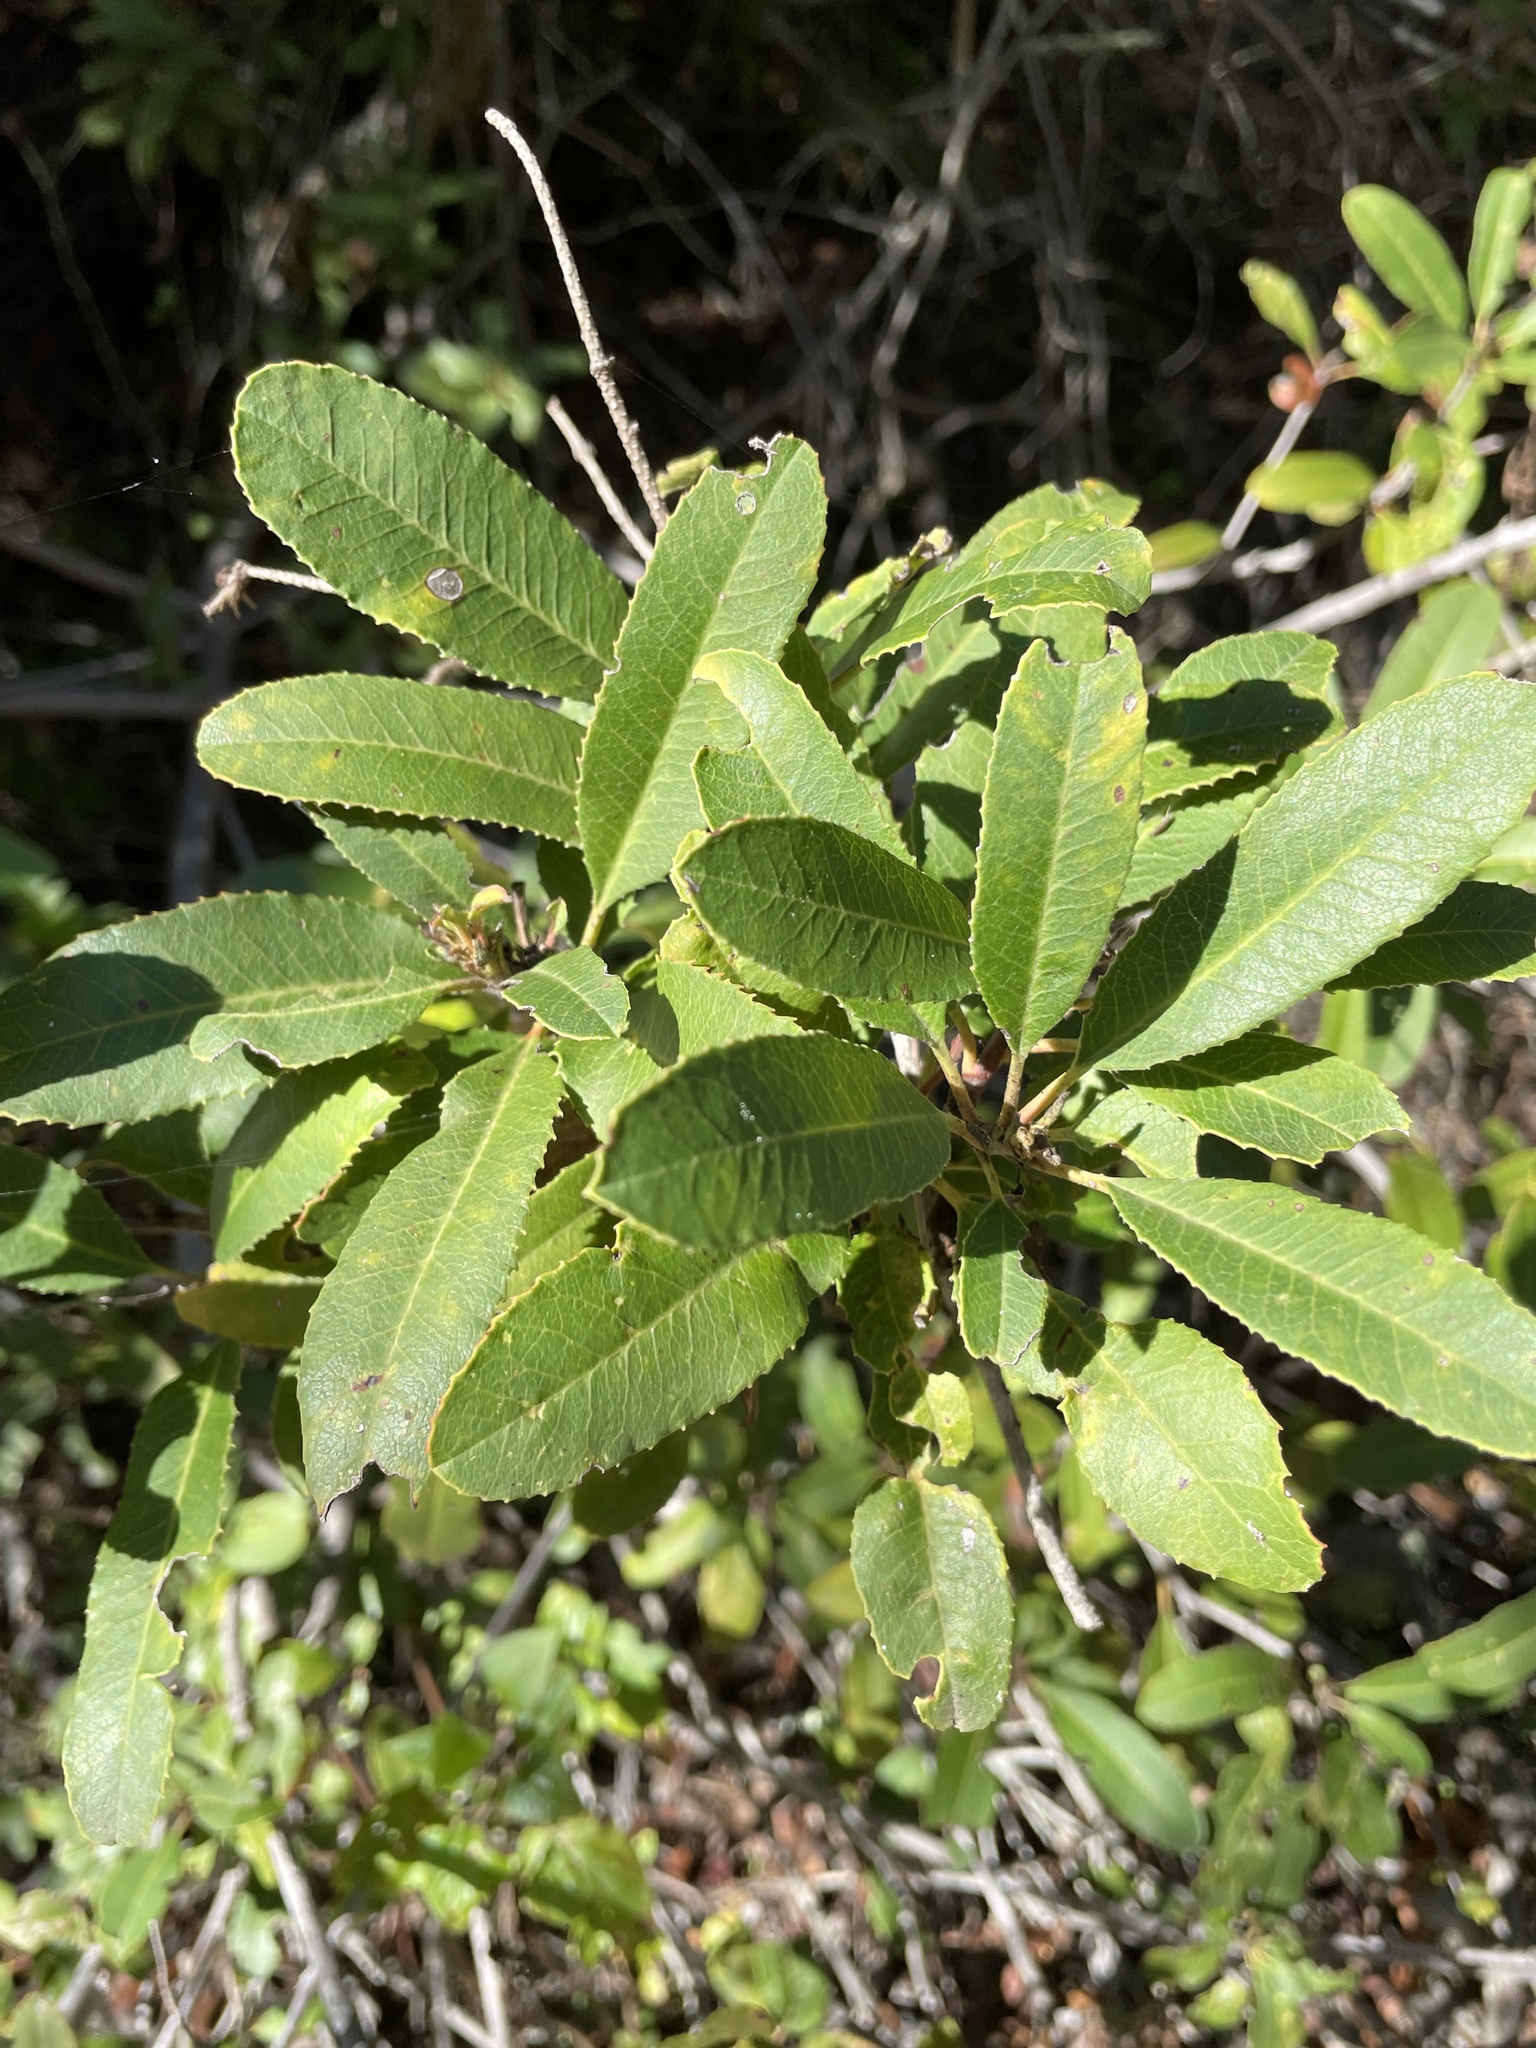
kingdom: Plantae
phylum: Tracheophyta
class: Magnoliopsida
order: Rosales
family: Rosaceae
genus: Heteromeles
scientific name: Heteromeles arbutifolia
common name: California-holly
